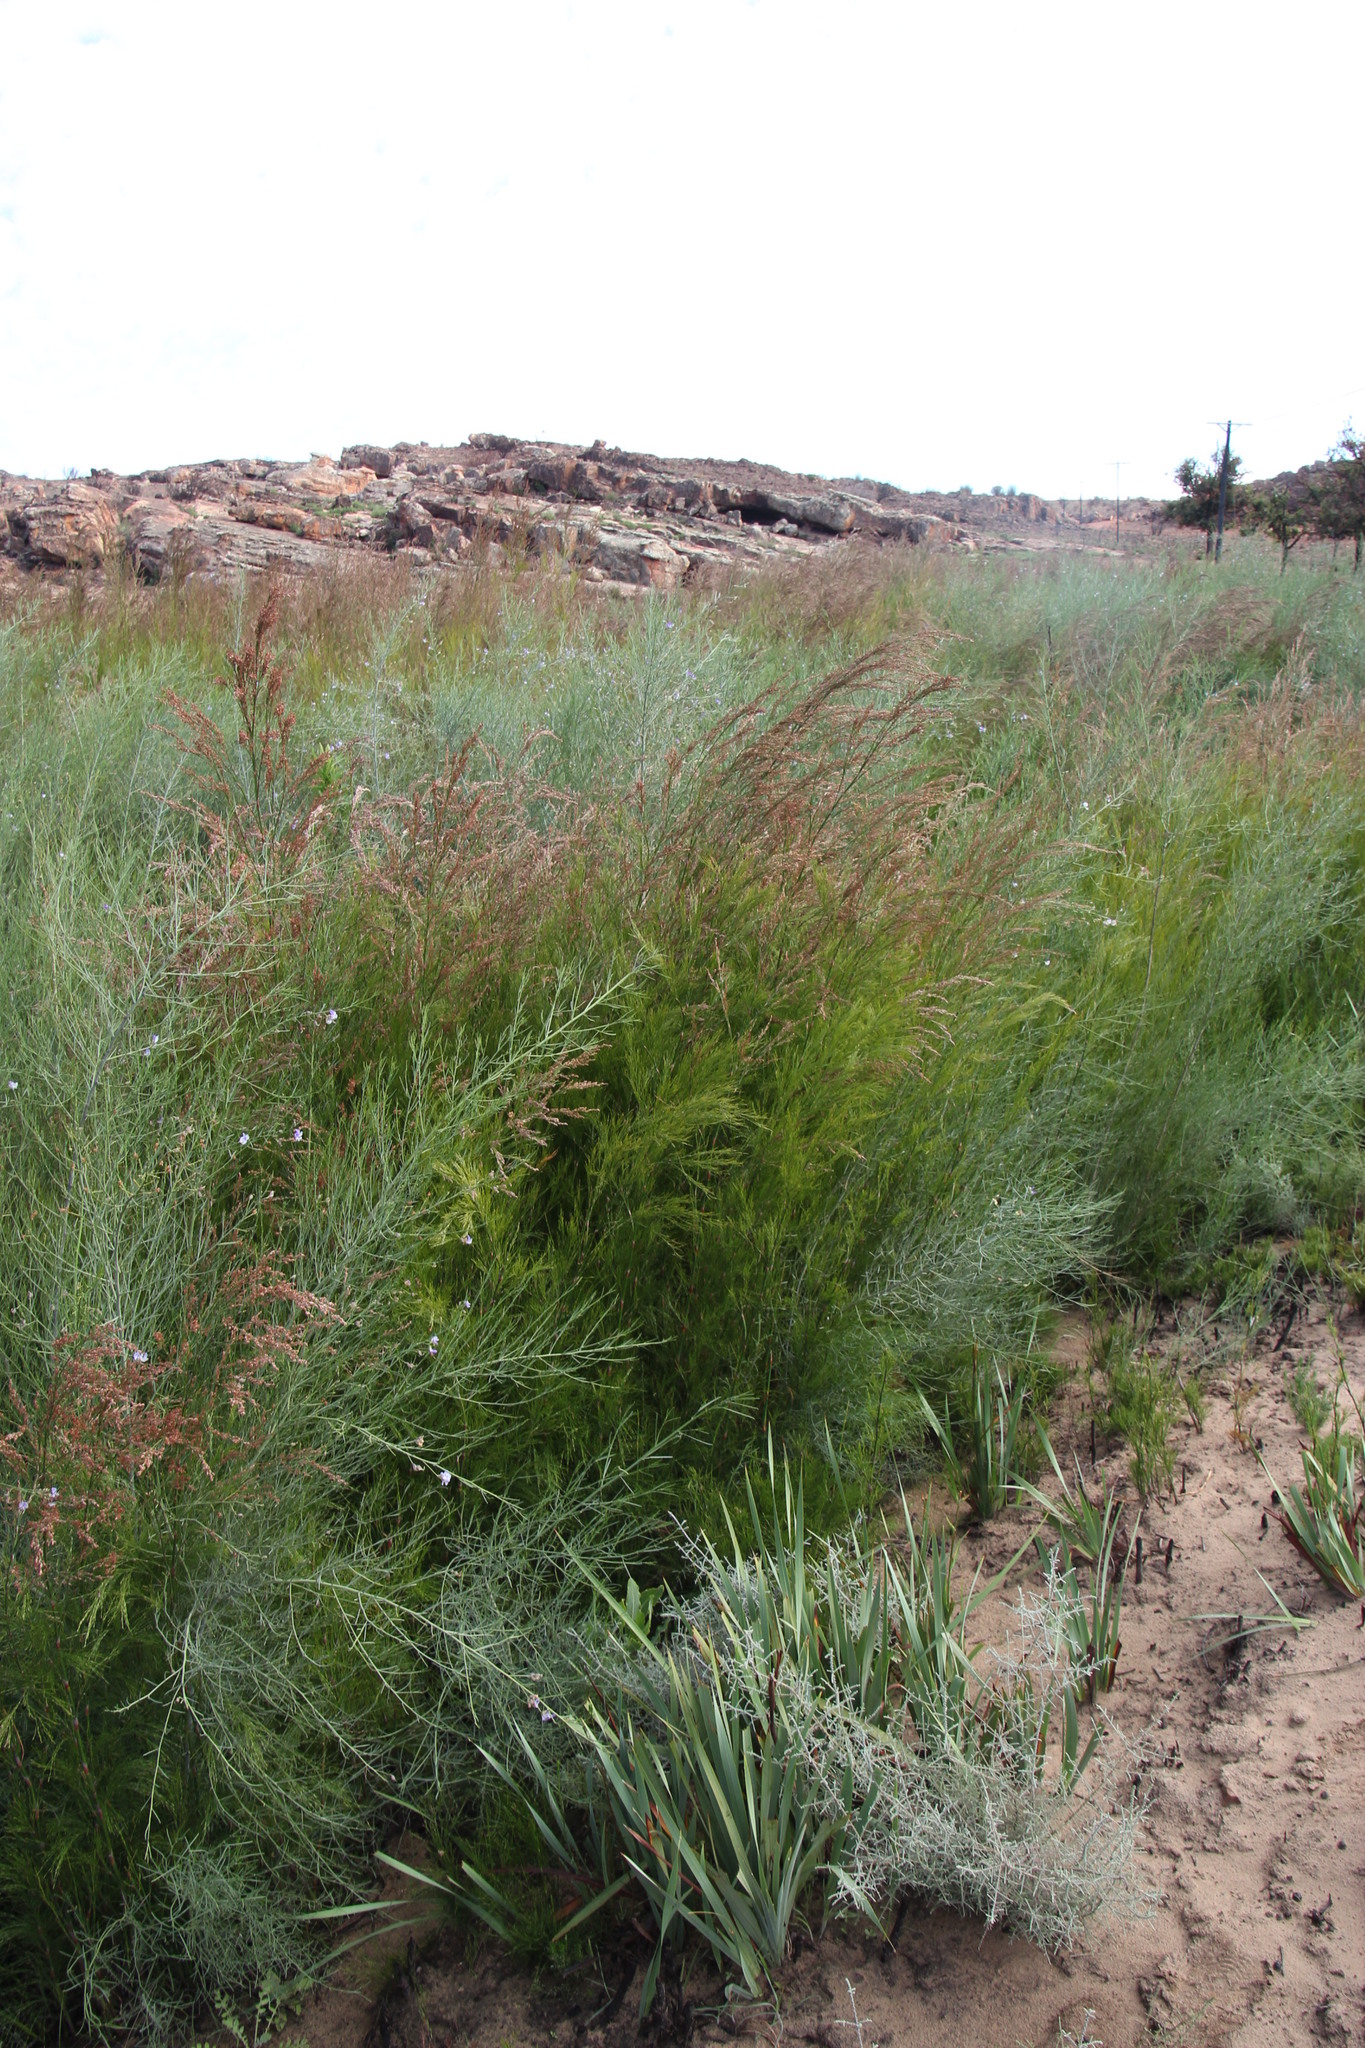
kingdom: Plantae
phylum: Tracheophyta
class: Liliopsida
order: Poales
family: Restionaceae
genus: Restio
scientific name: Restio paniculatus
